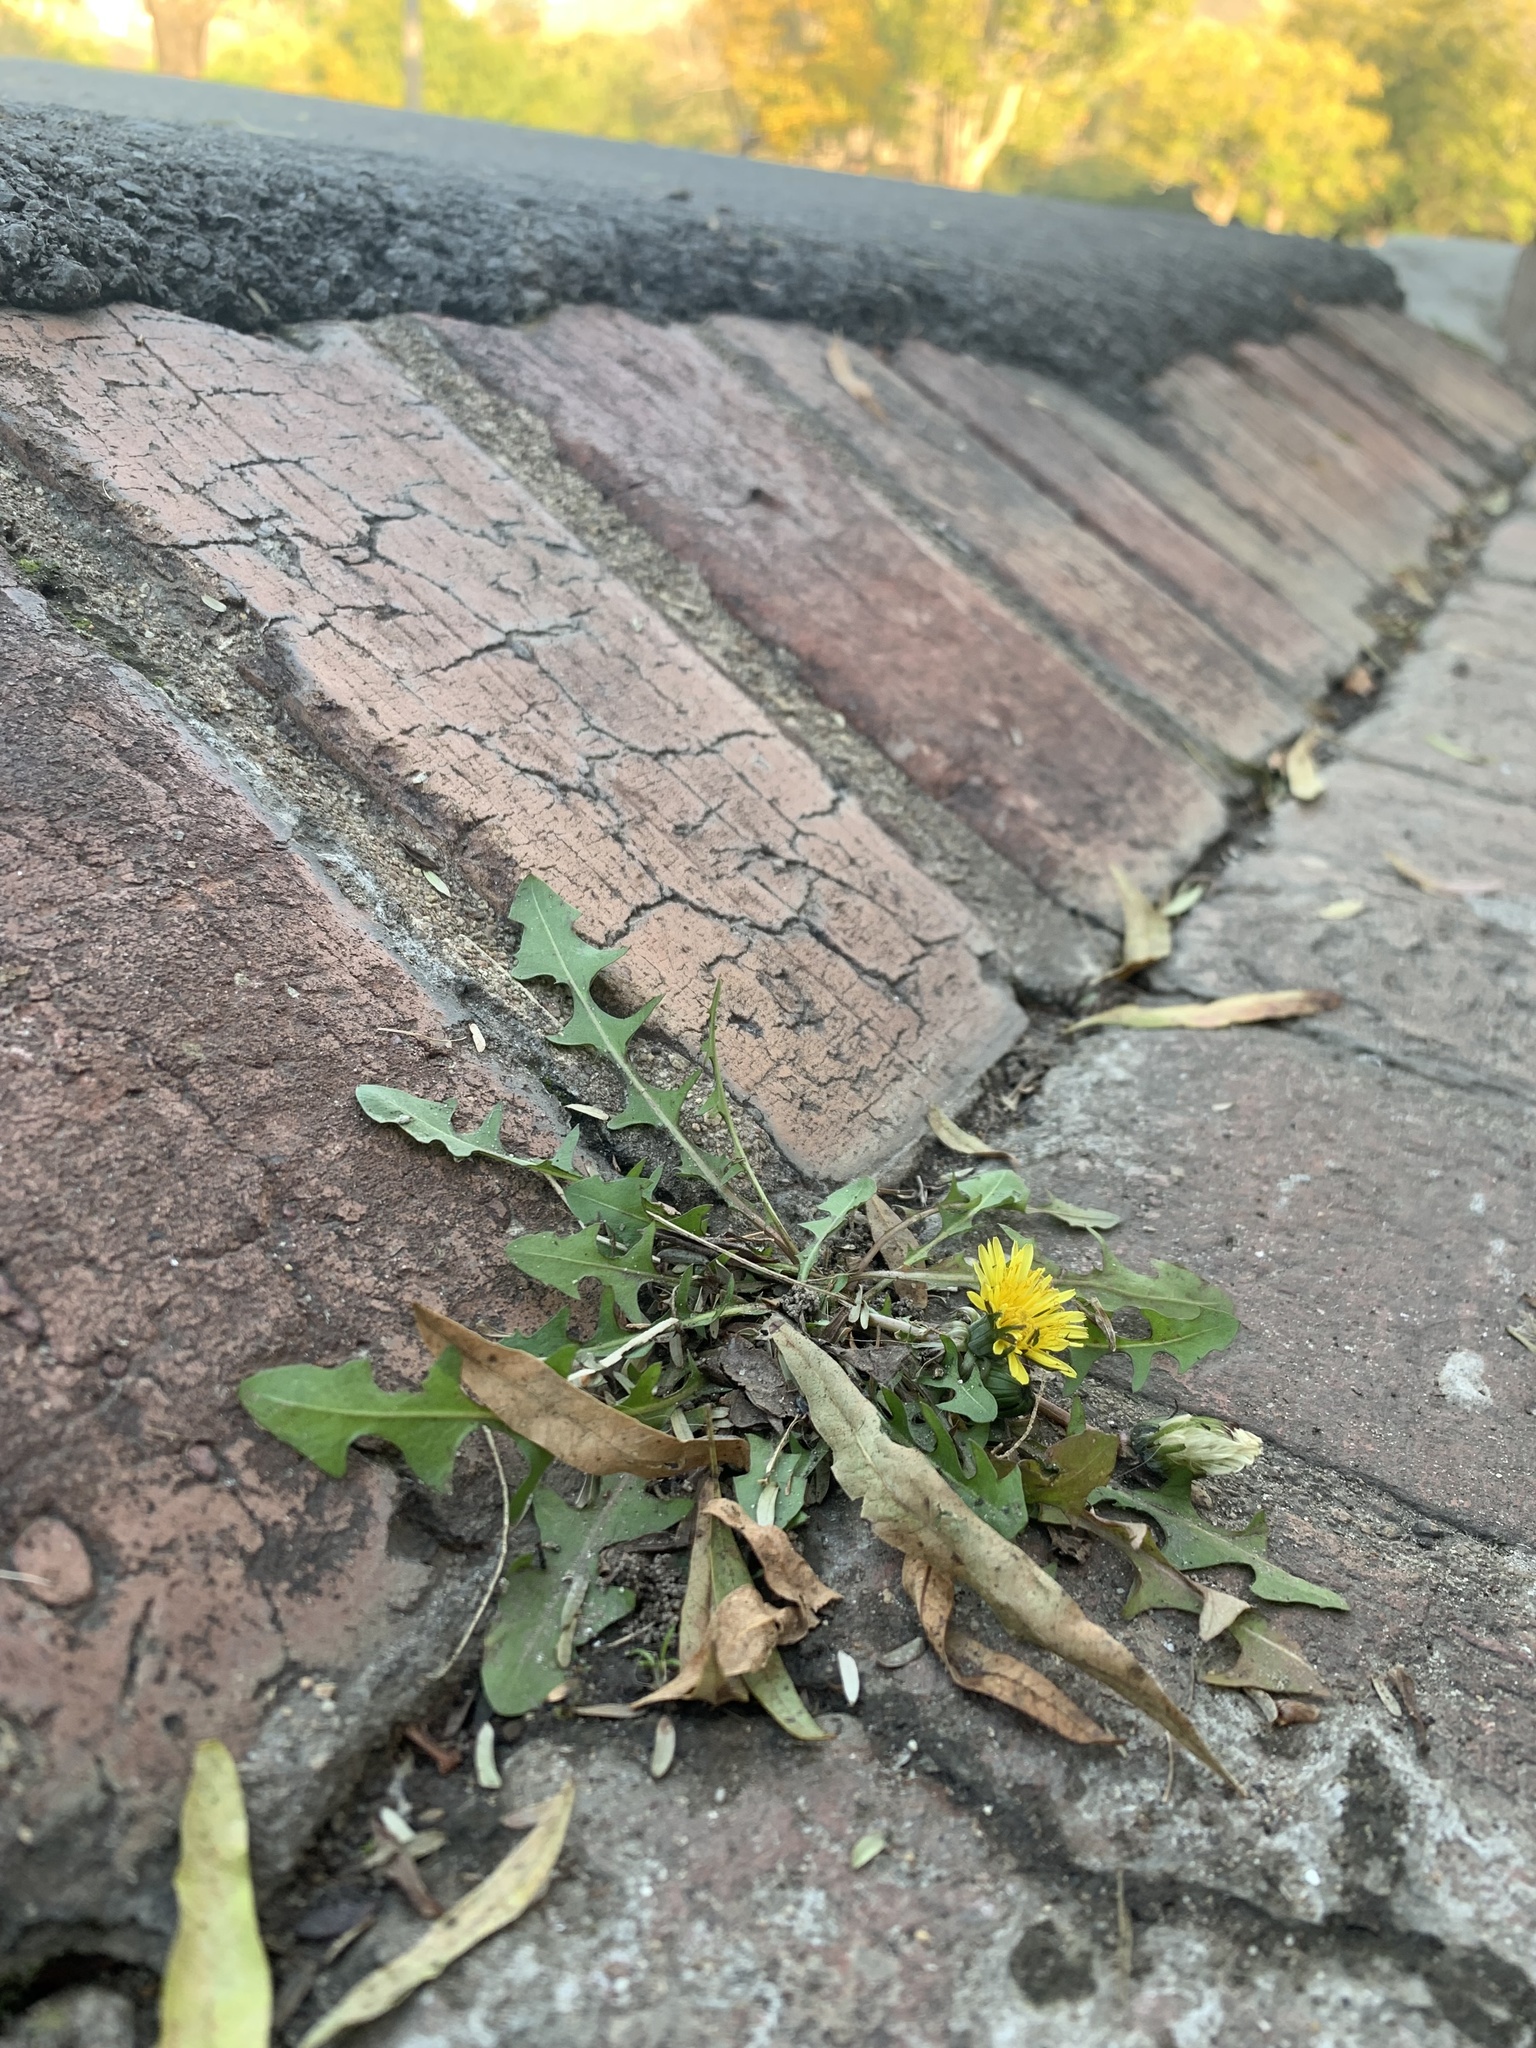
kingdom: Plantae
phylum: Tracheophyta
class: Magnoliopsida
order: Asterales
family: Asteraceae
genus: Taraxacum
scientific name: Taraxacum officinale
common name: Common dandelion
